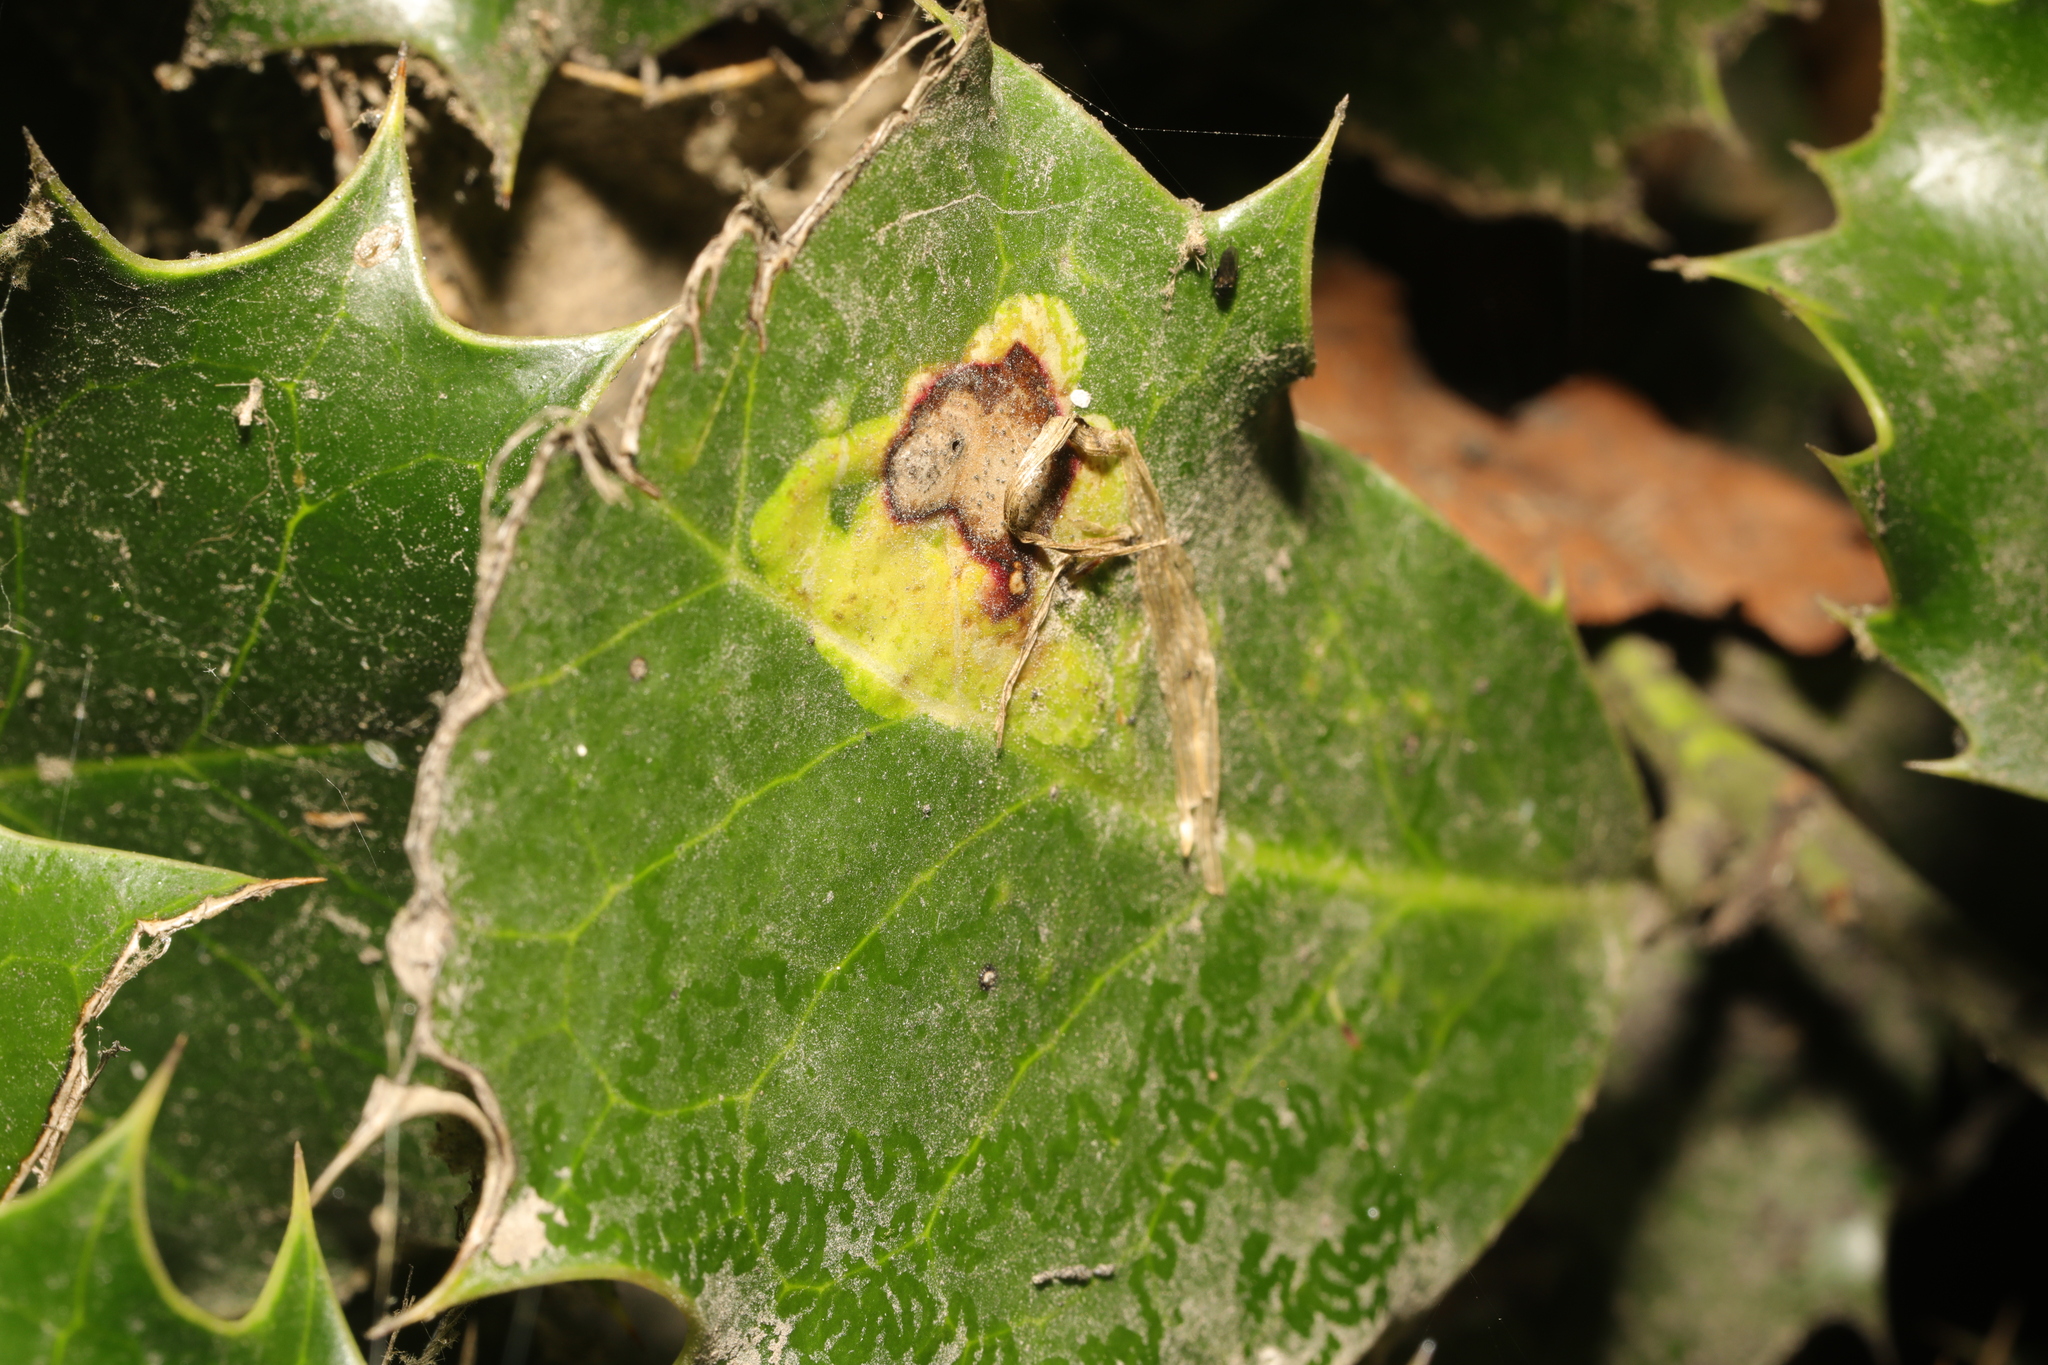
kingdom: Animalia
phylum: Arthropoda
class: Insecta
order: Diptera
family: Agromyzidae
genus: Phytomyza
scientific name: Phytomyza ilicis
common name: Holly leafminer
